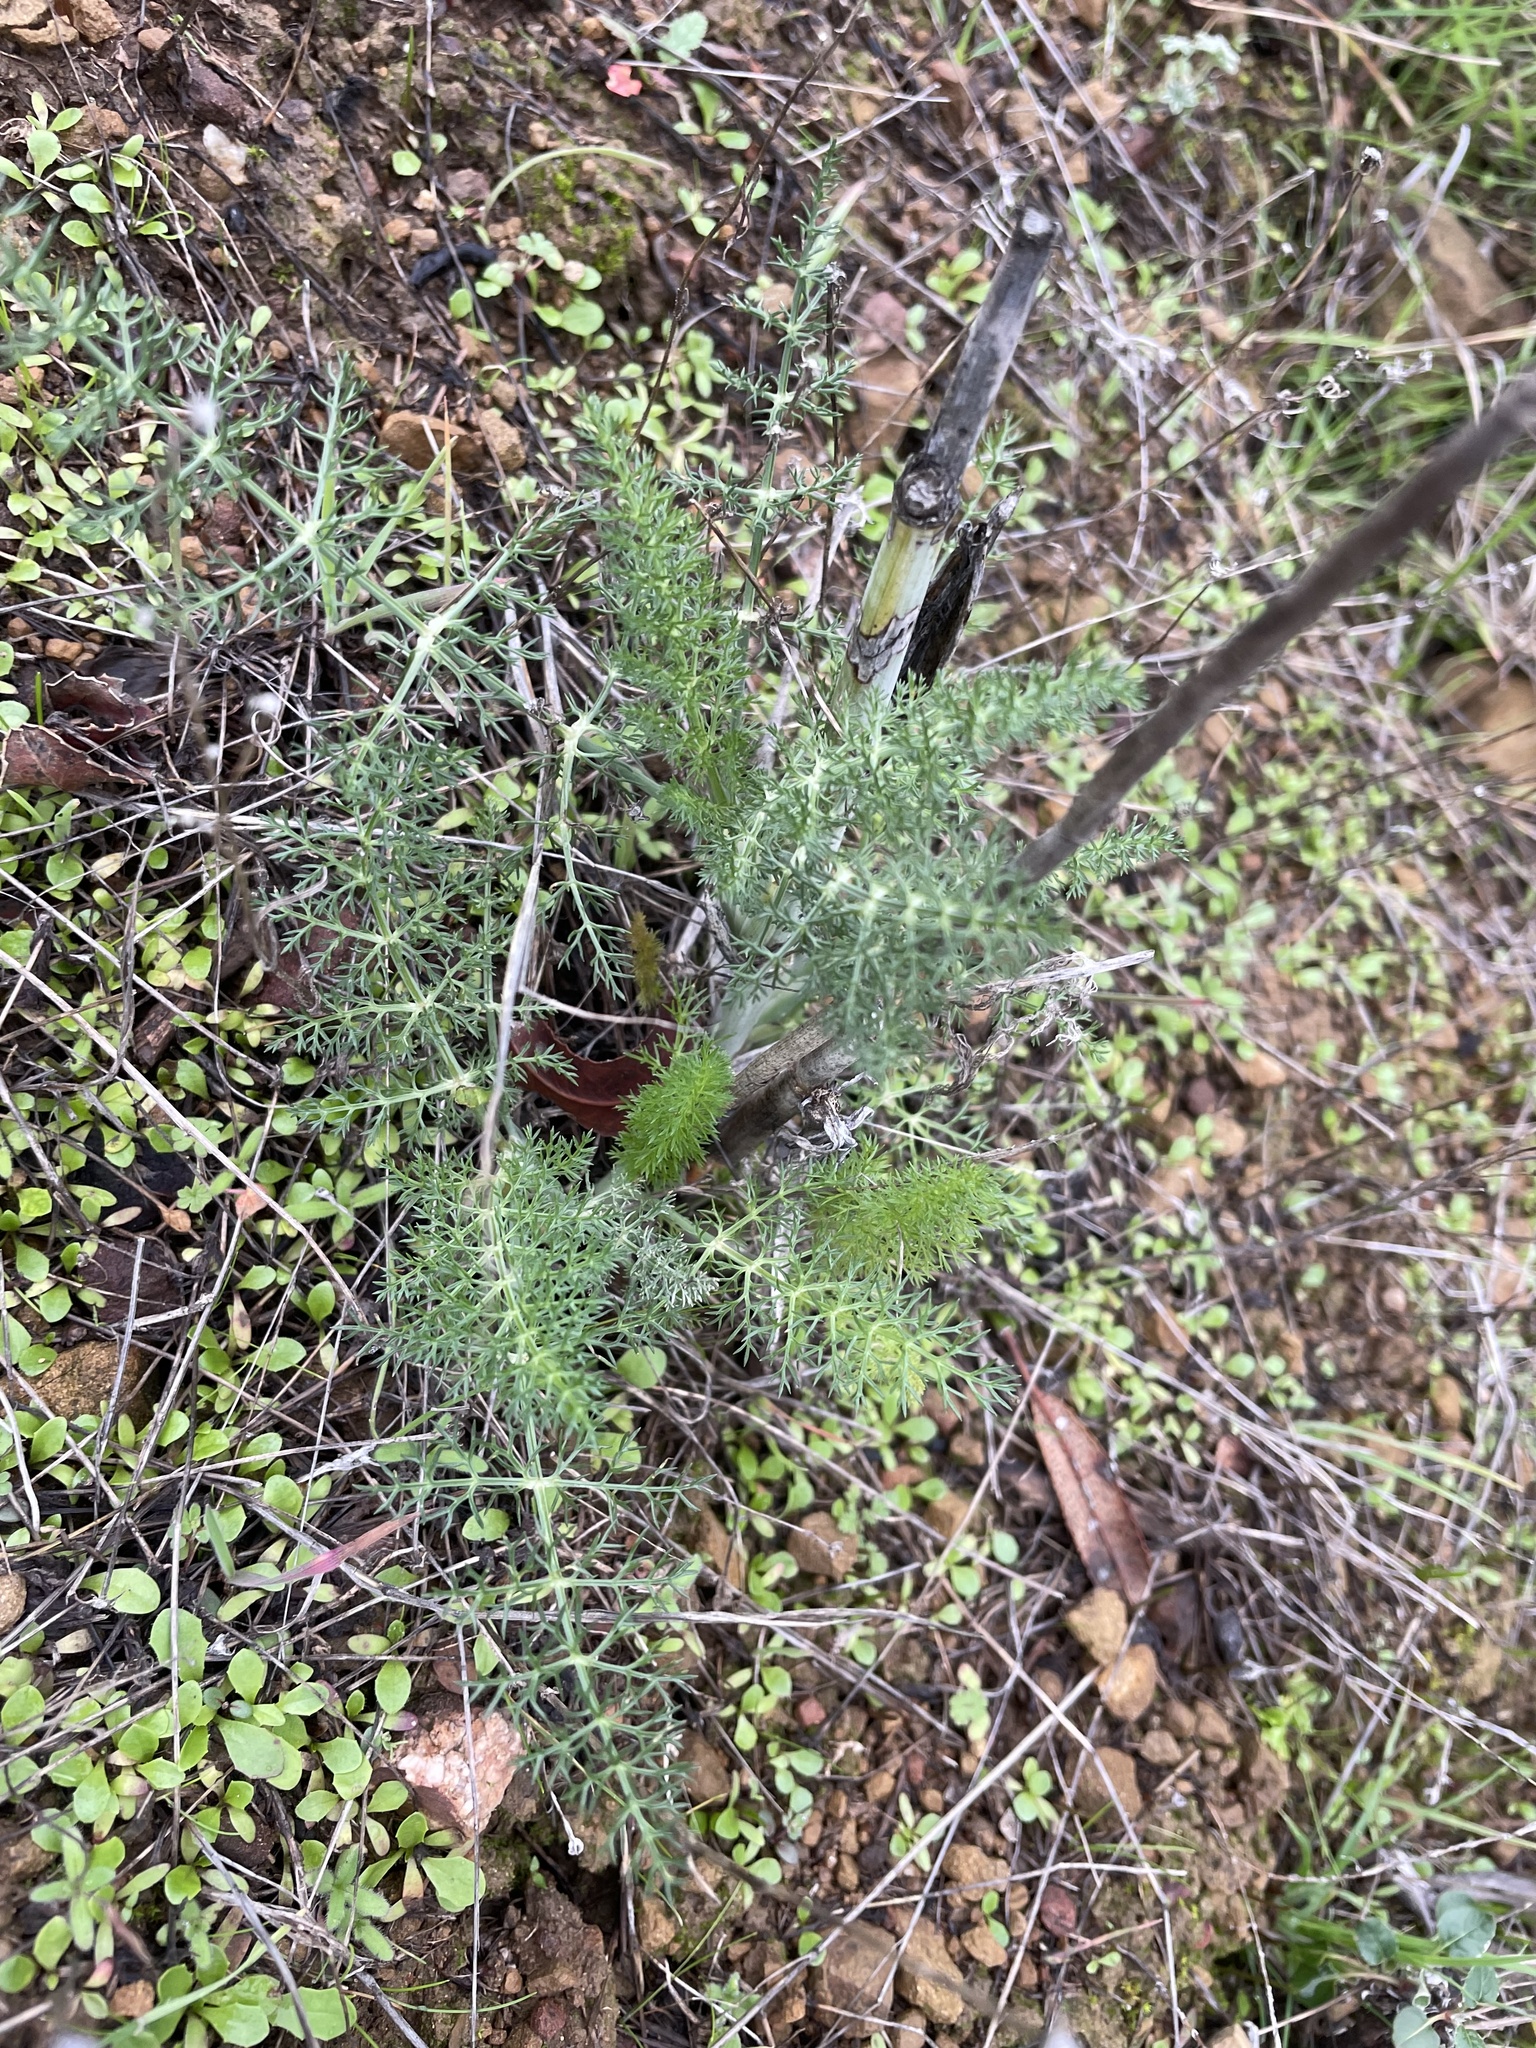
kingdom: Plantae
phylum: Tracheophyta
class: Magnoliopsida
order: Apiales
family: Apiaceae
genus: Foeniculum
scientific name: Foeniculum vulgare
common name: Fennel
